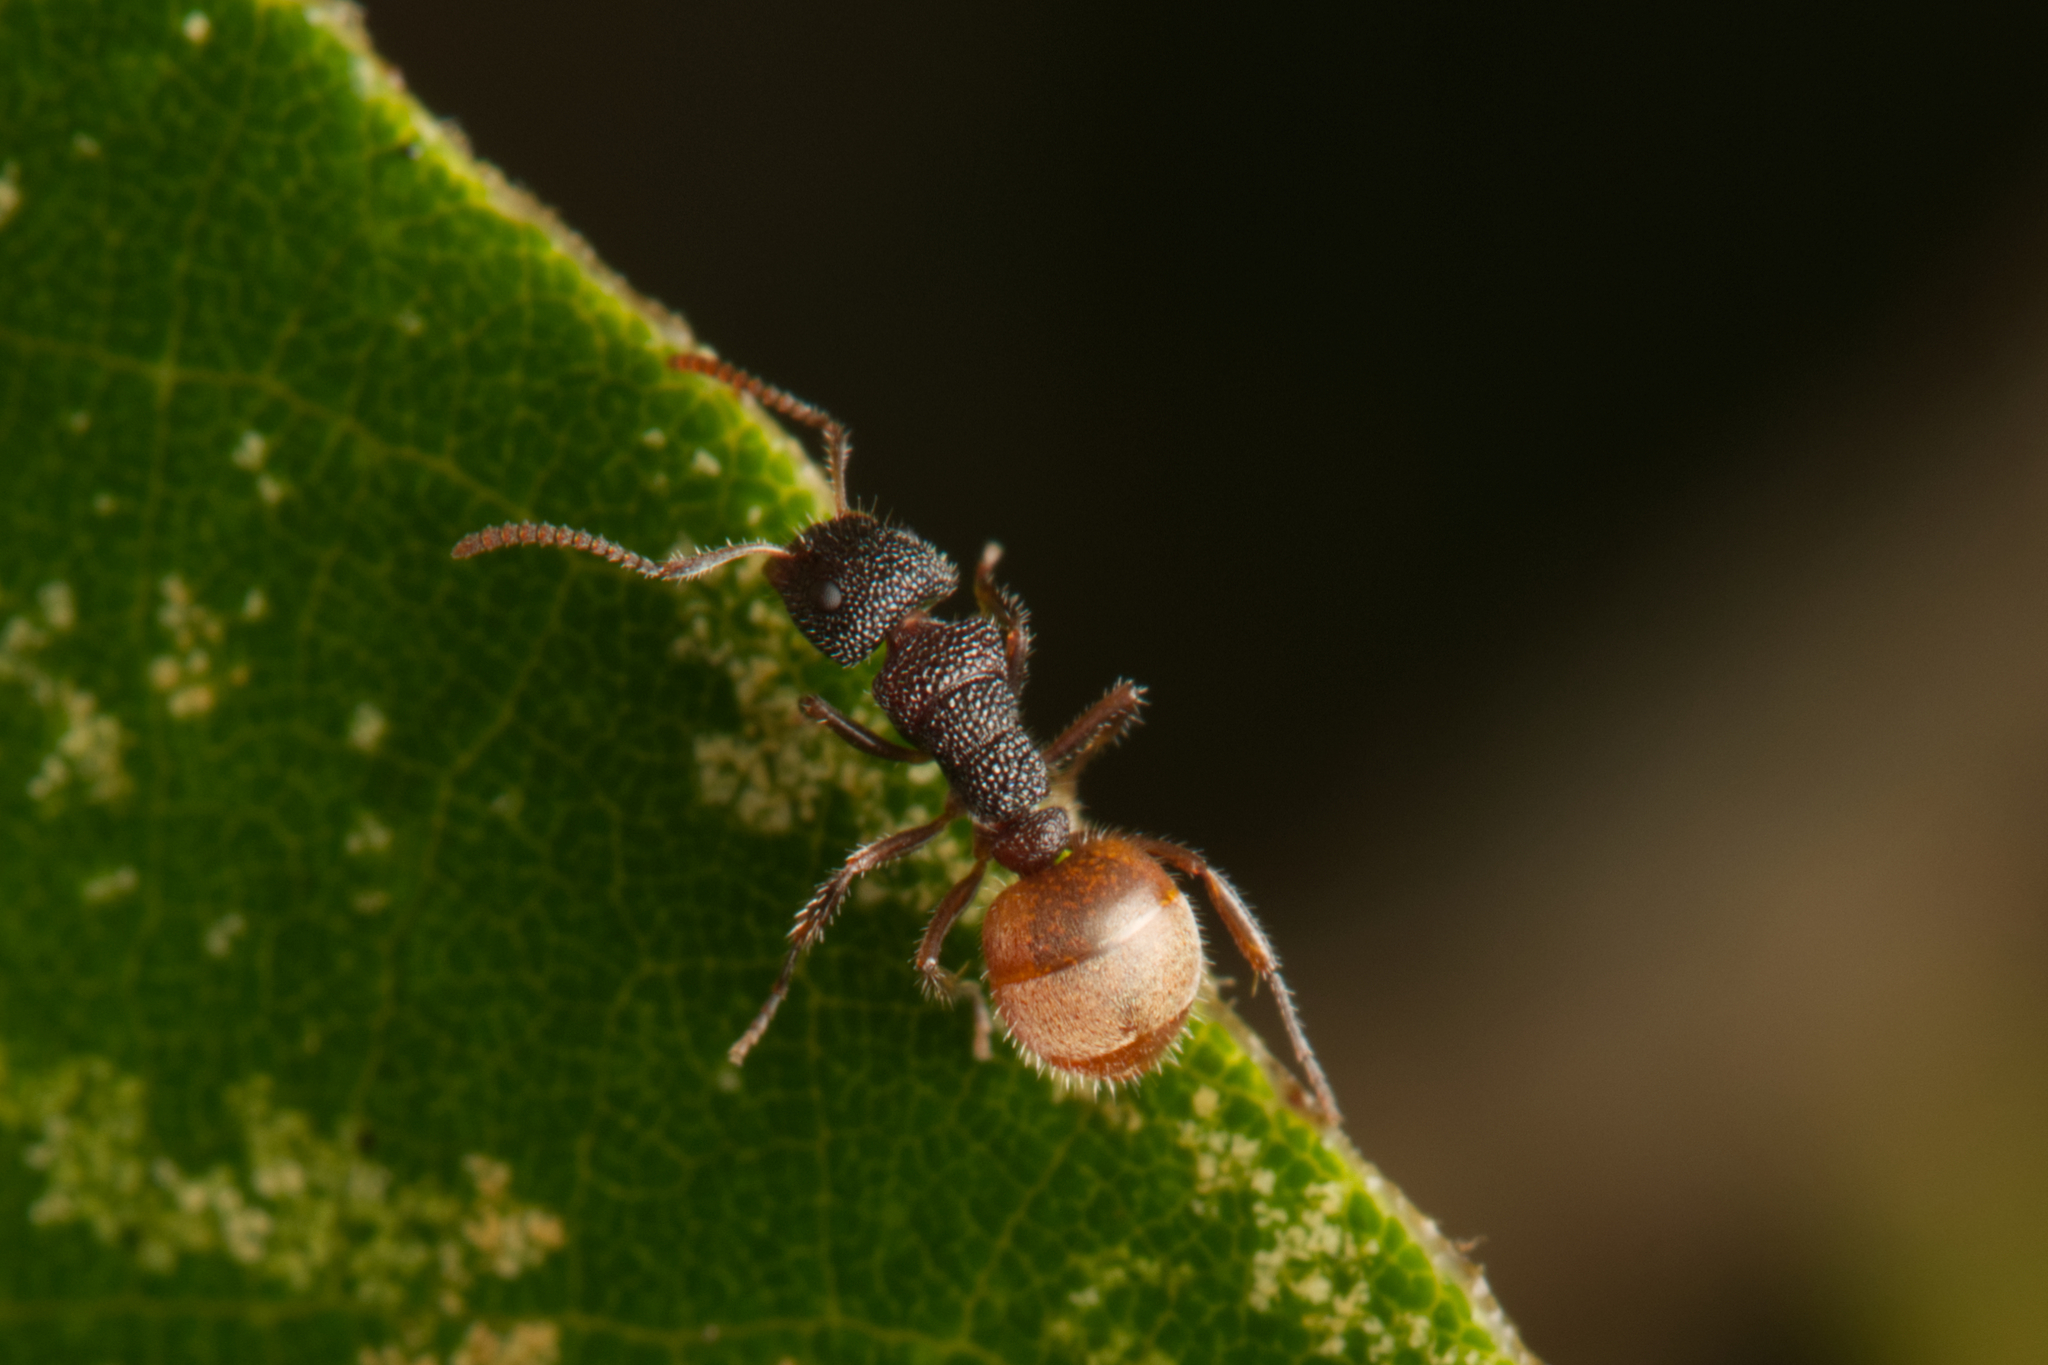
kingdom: Animalia
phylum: Arthropoda
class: Insecta
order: Hymenoptera
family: Formicidae
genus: Dolichoderus
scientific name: Dolichoderus turneri
